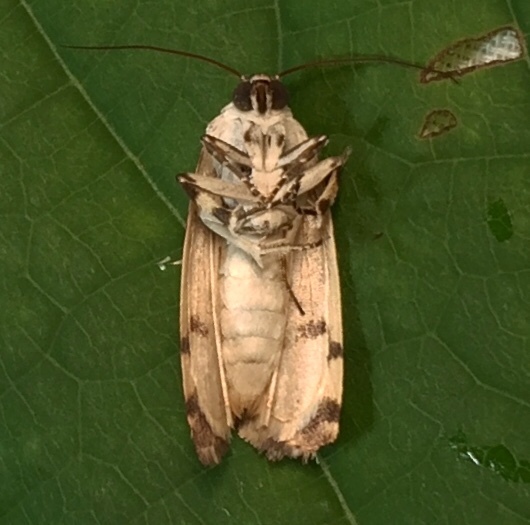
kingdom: Animalia
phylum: Arthropoda
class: Insecta
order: Lepidoptera
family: Noctuidae
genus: Acontia
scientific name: Acontia aprica
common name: Nun
